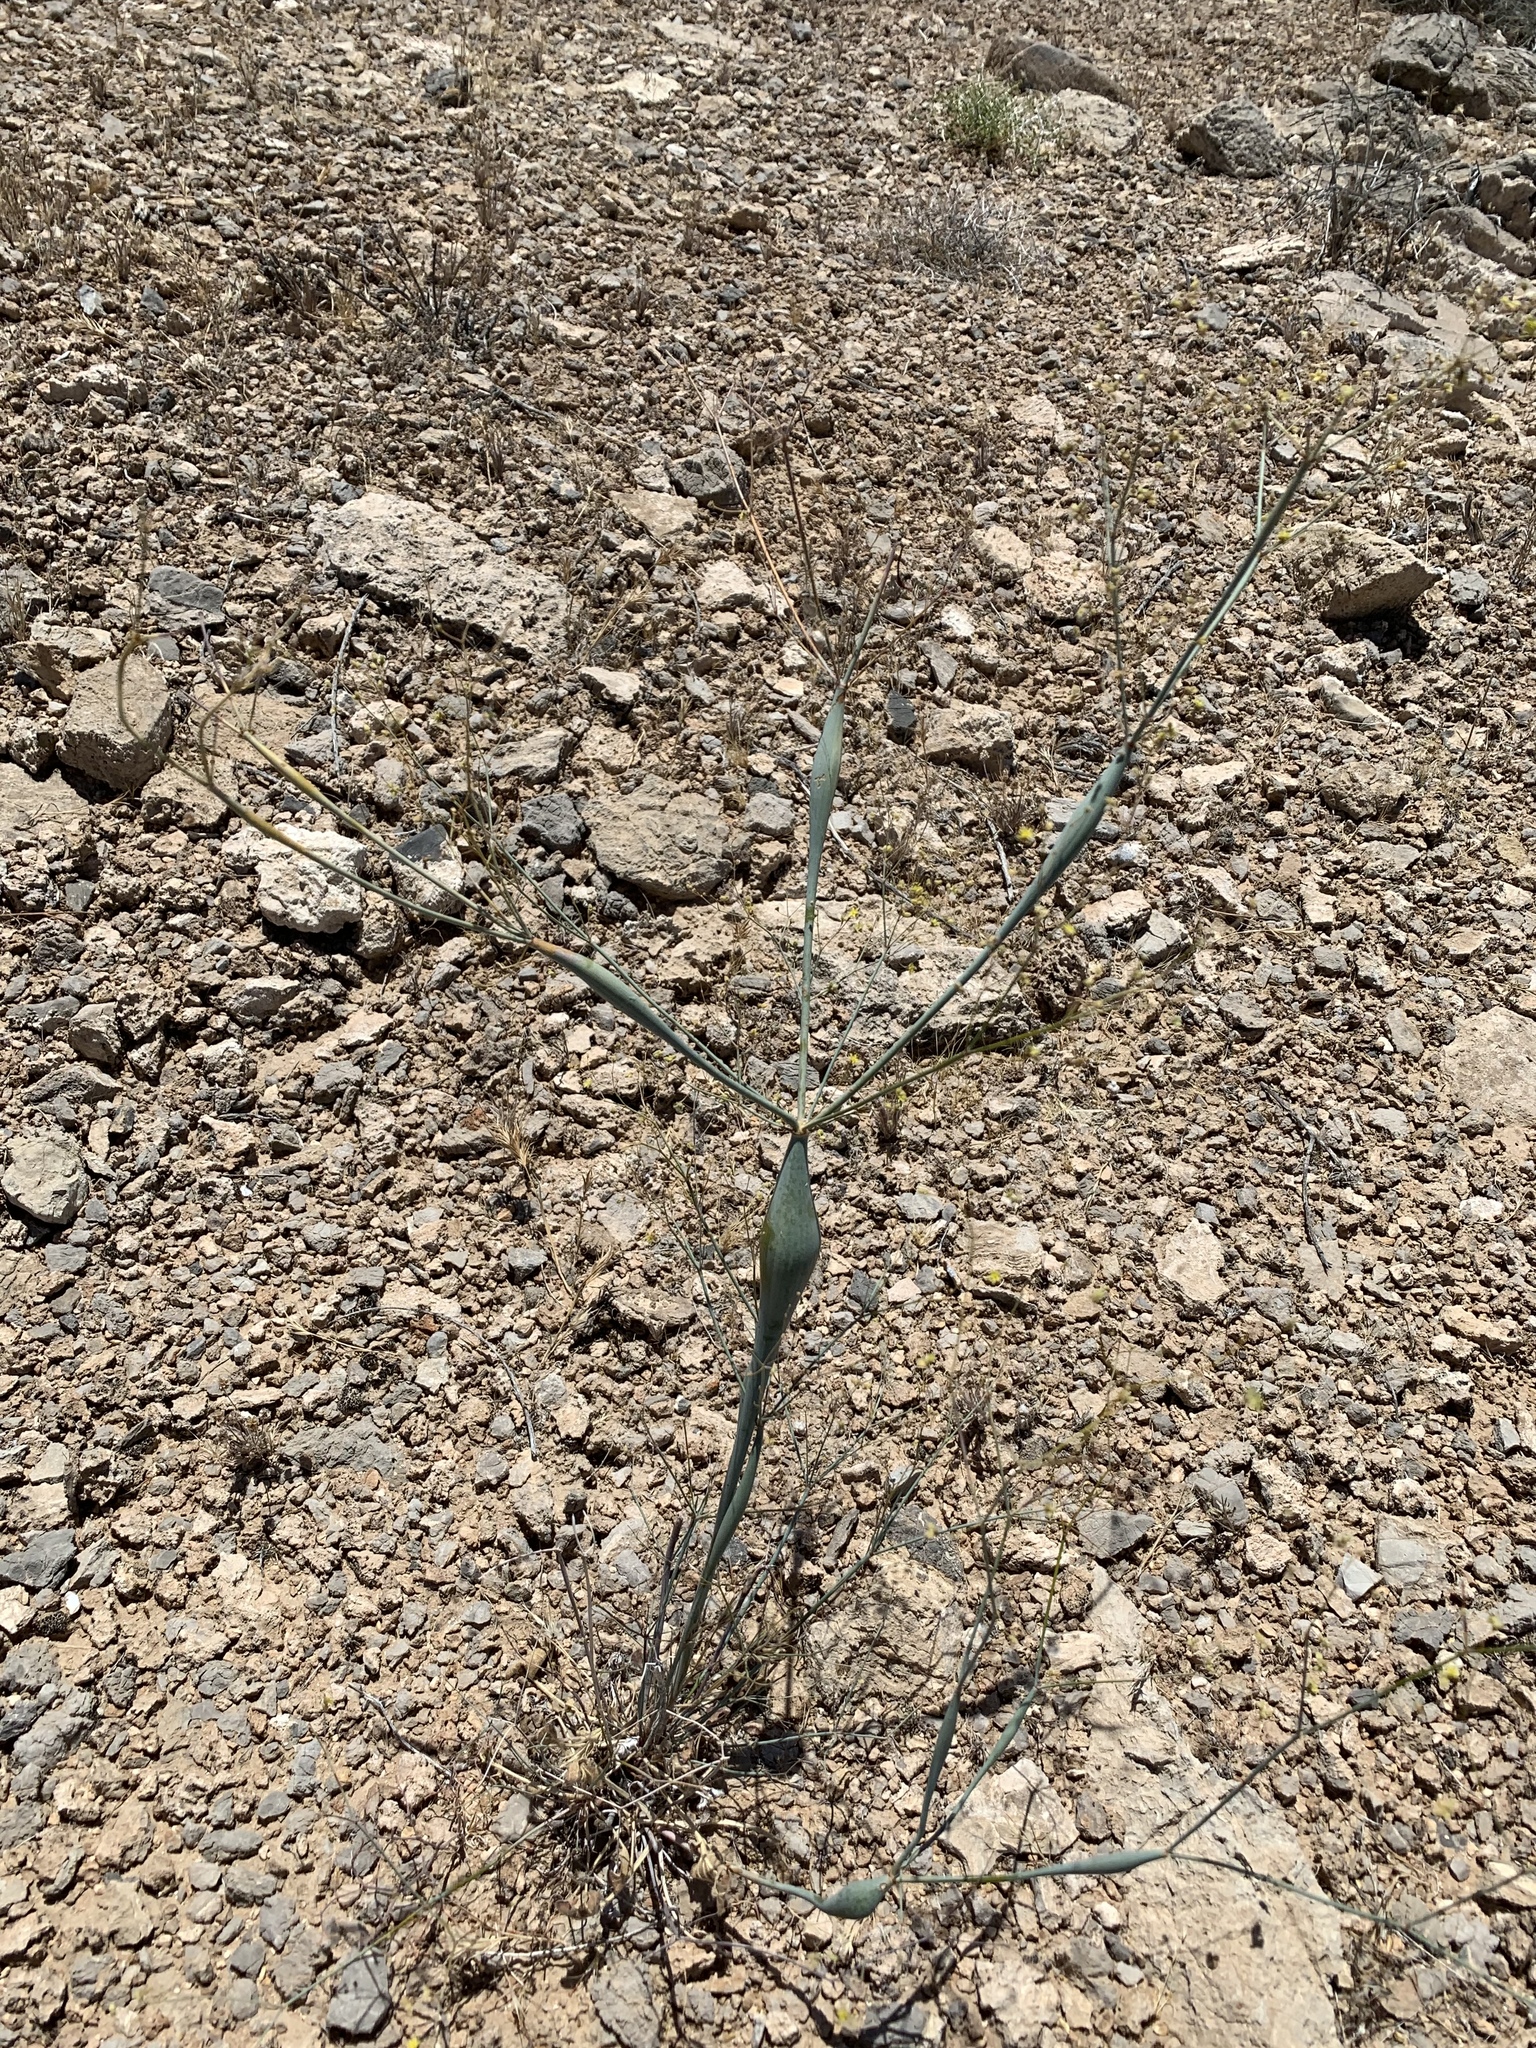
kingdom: Plantae
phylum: Tracheophyta
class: Magnoliopsida
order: Caryophyllales
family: Polygonaceae
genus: Eriogonum
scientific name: Eriogonum inflatum
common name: Desert trumpet
